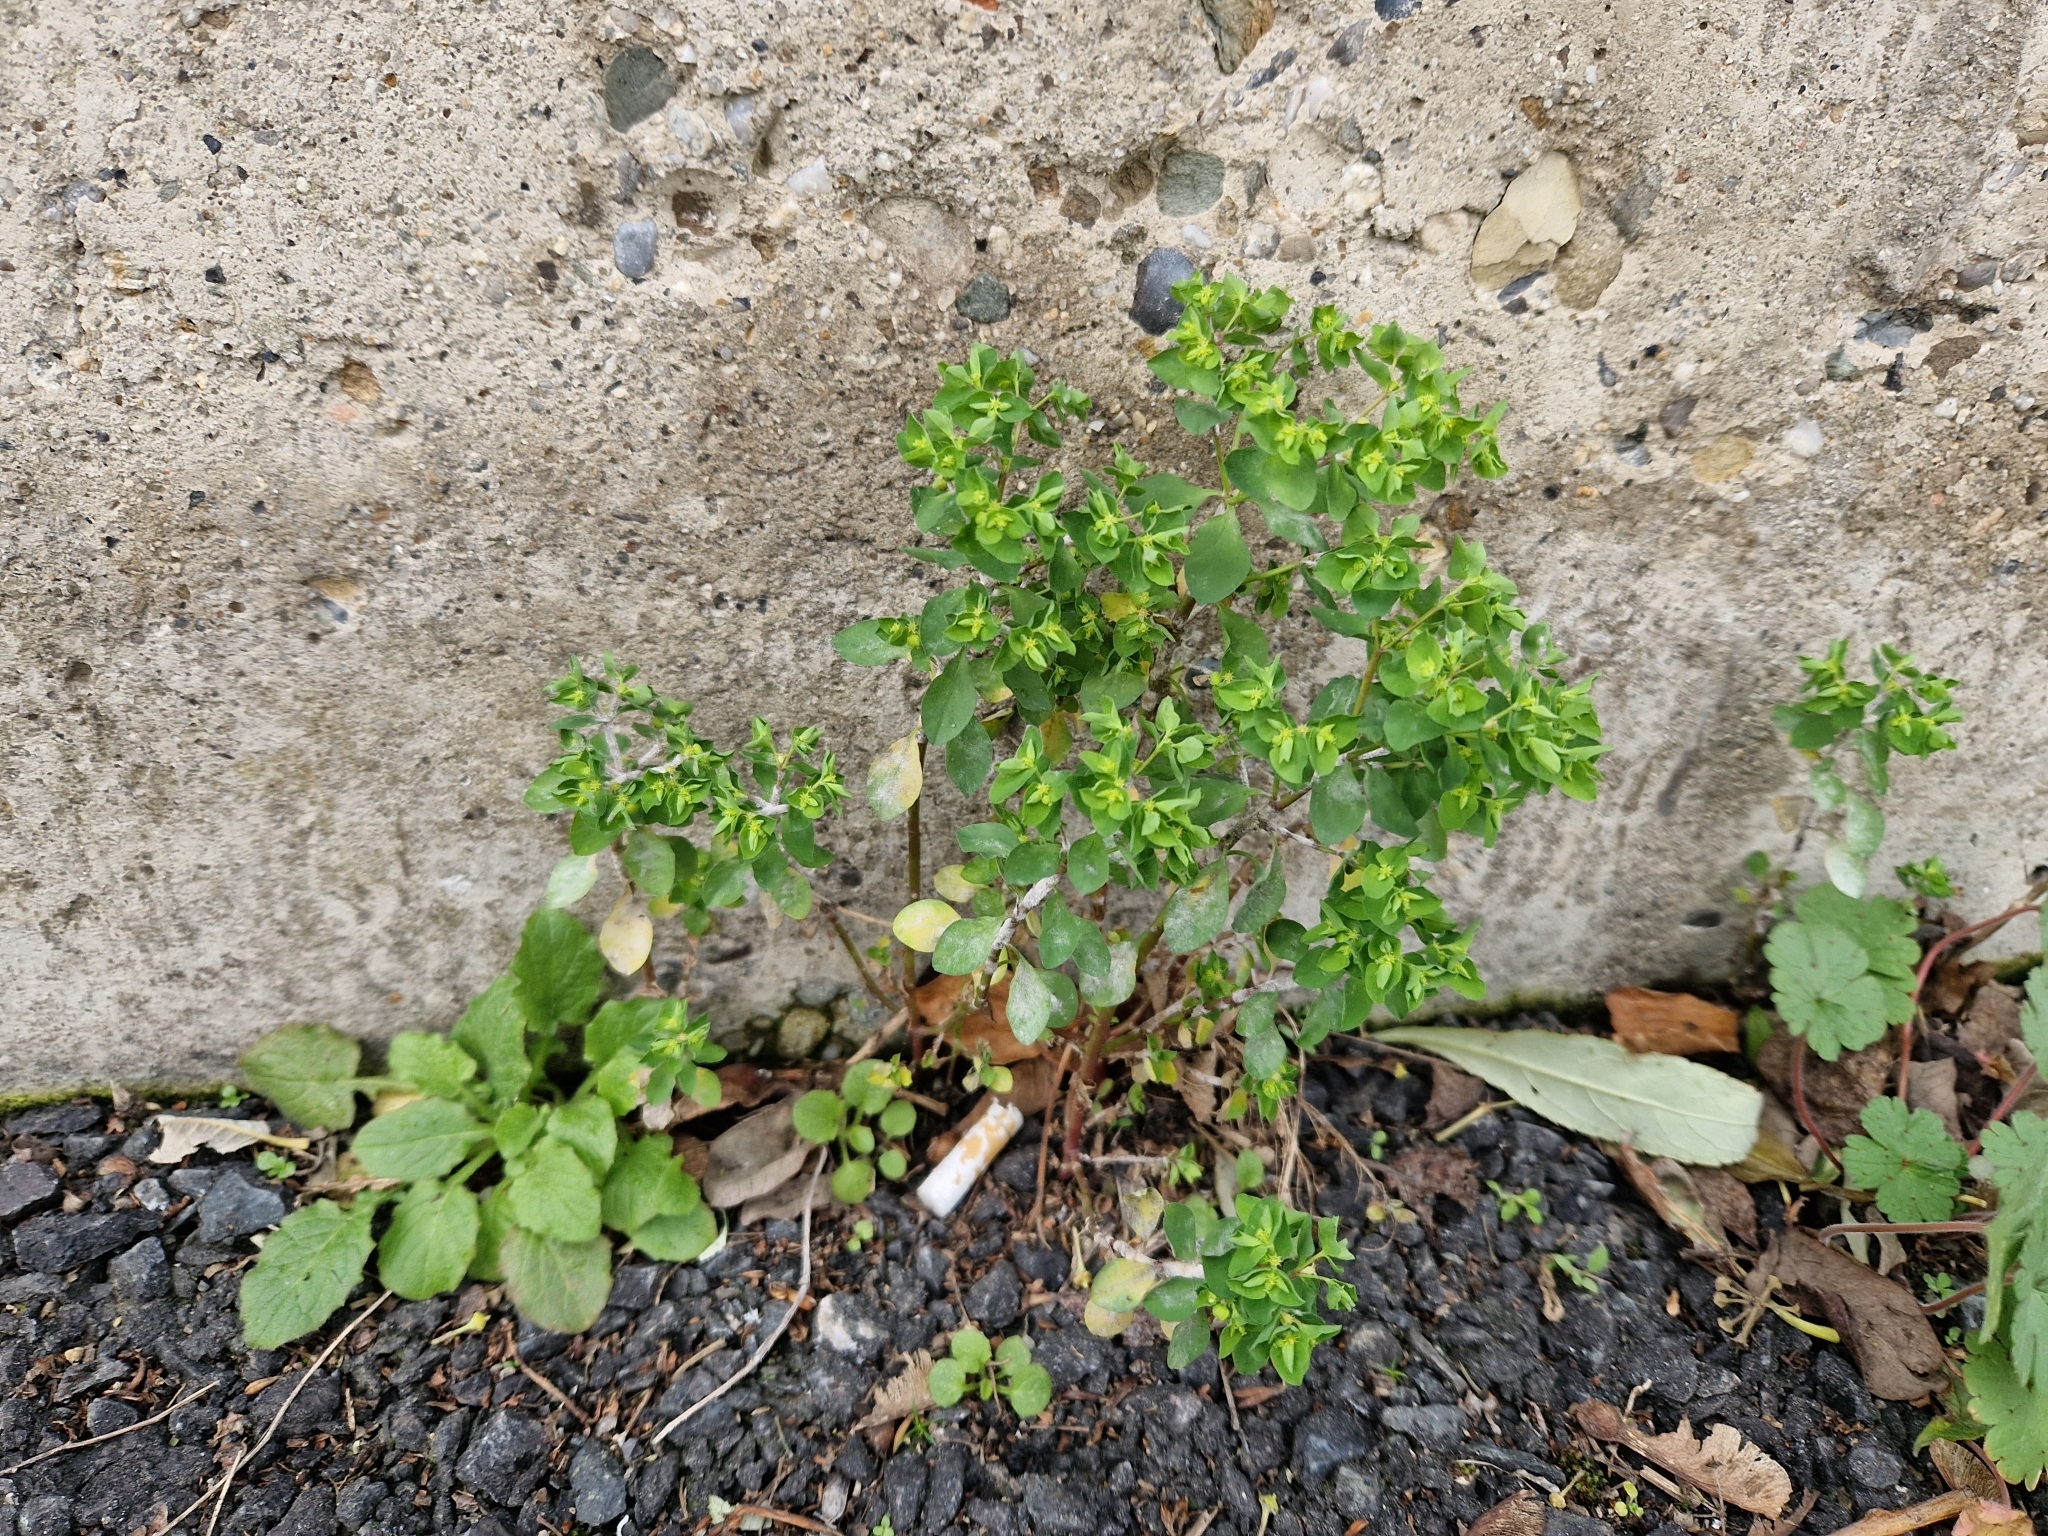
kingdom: Plantae
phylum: Tracheophyta
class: Magnoliopsida
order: Malpighiales
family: Euphorbiaceae
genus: Euphorbia
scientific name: Euphorbia peplus
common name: Petty spurge
